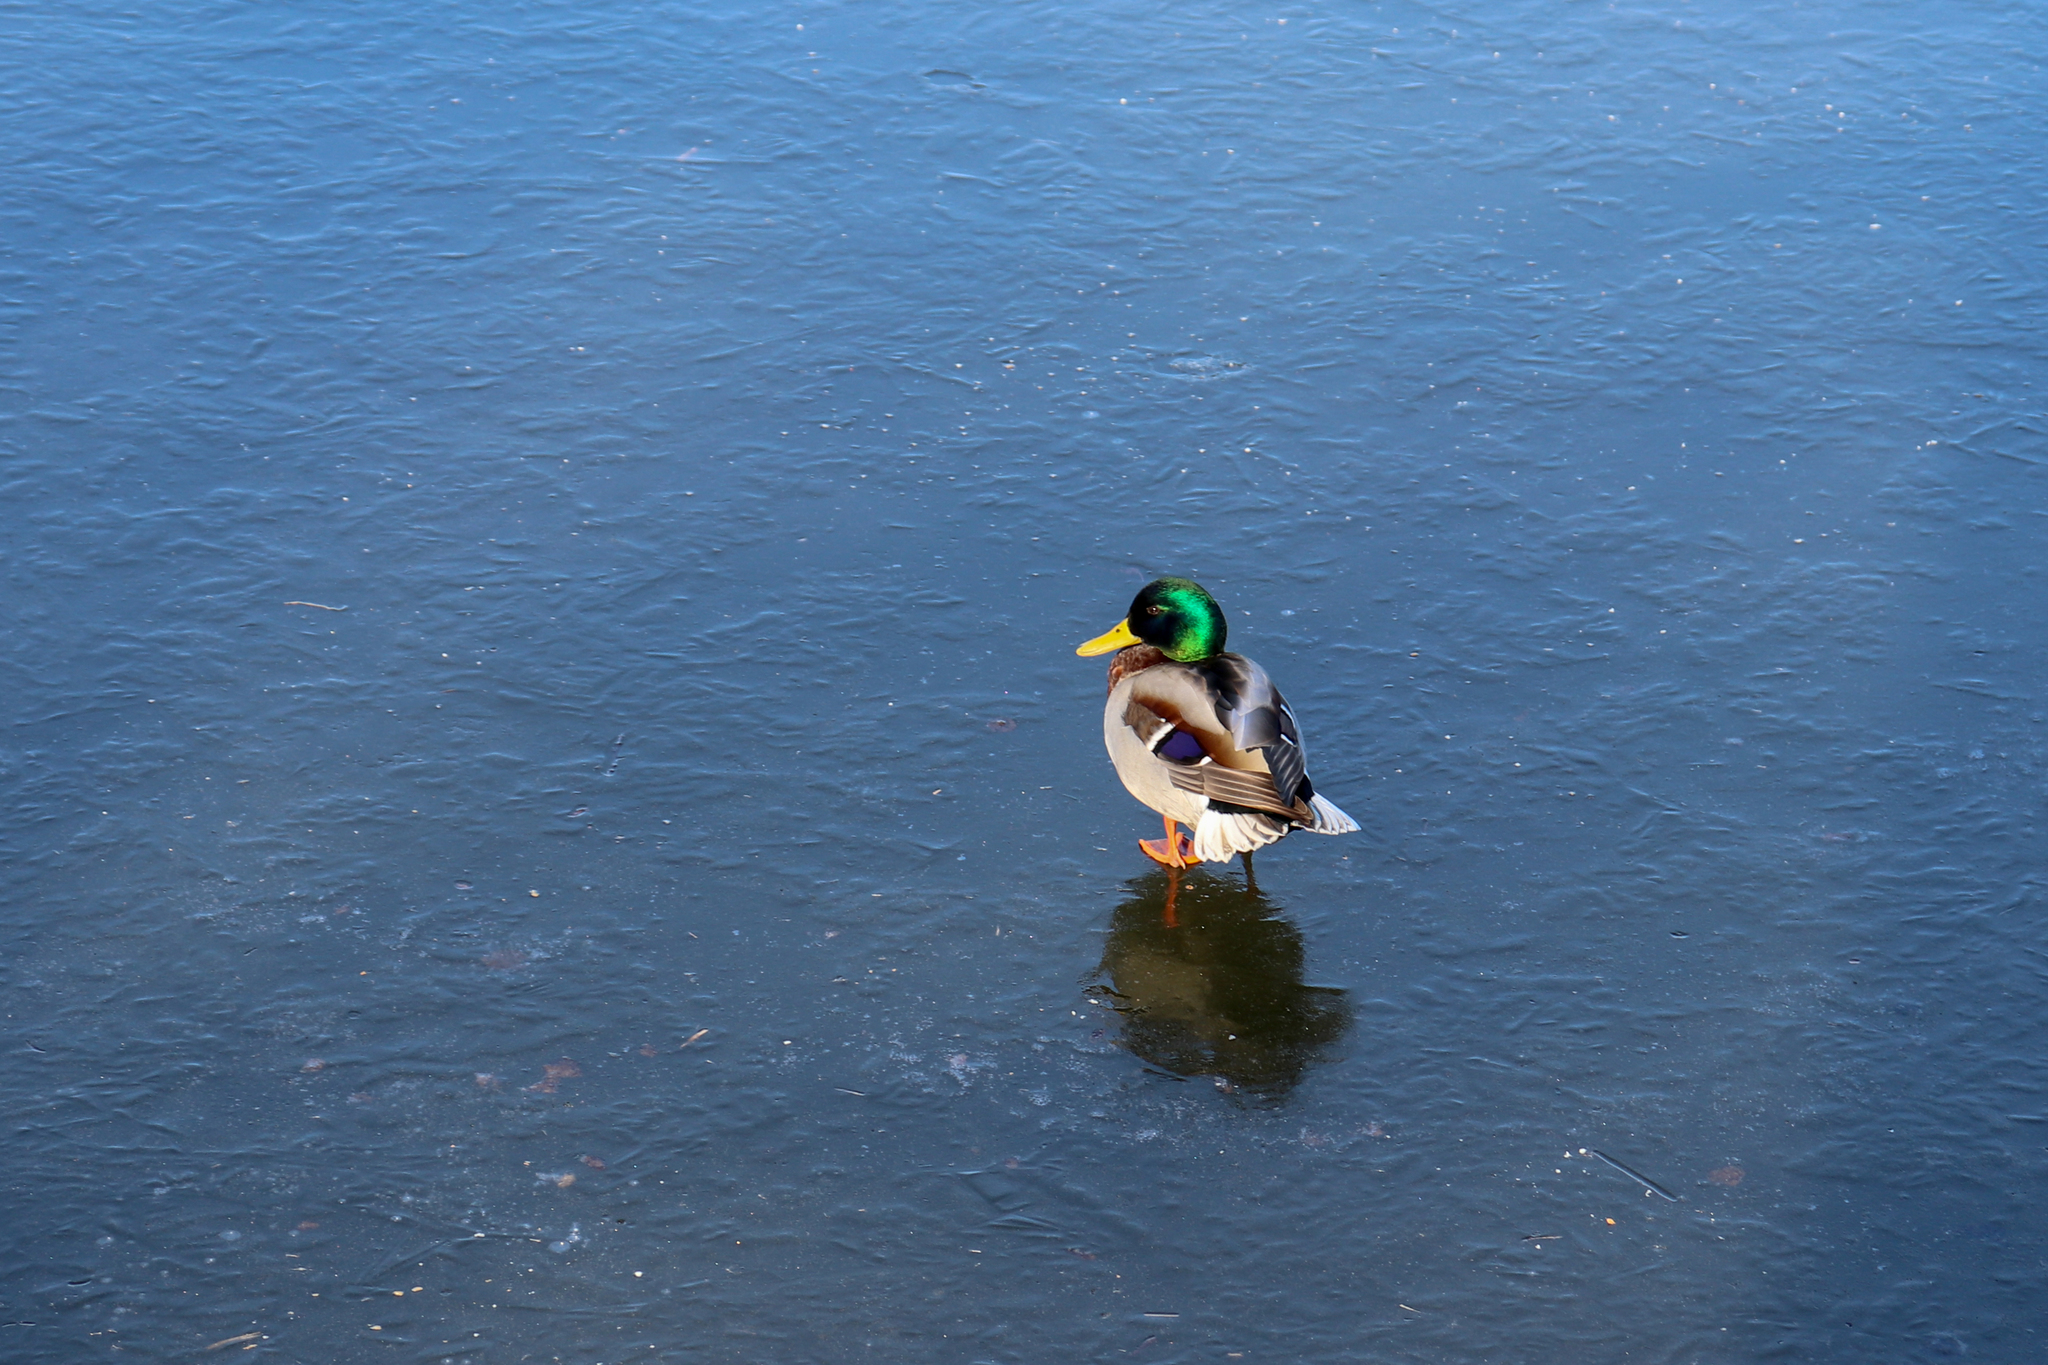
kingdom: Animalia
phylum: Chordata
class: Aves
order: Anseriformes
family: Anatidae
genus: Anas
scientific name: Anas platyrhynchos
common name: Mallard
